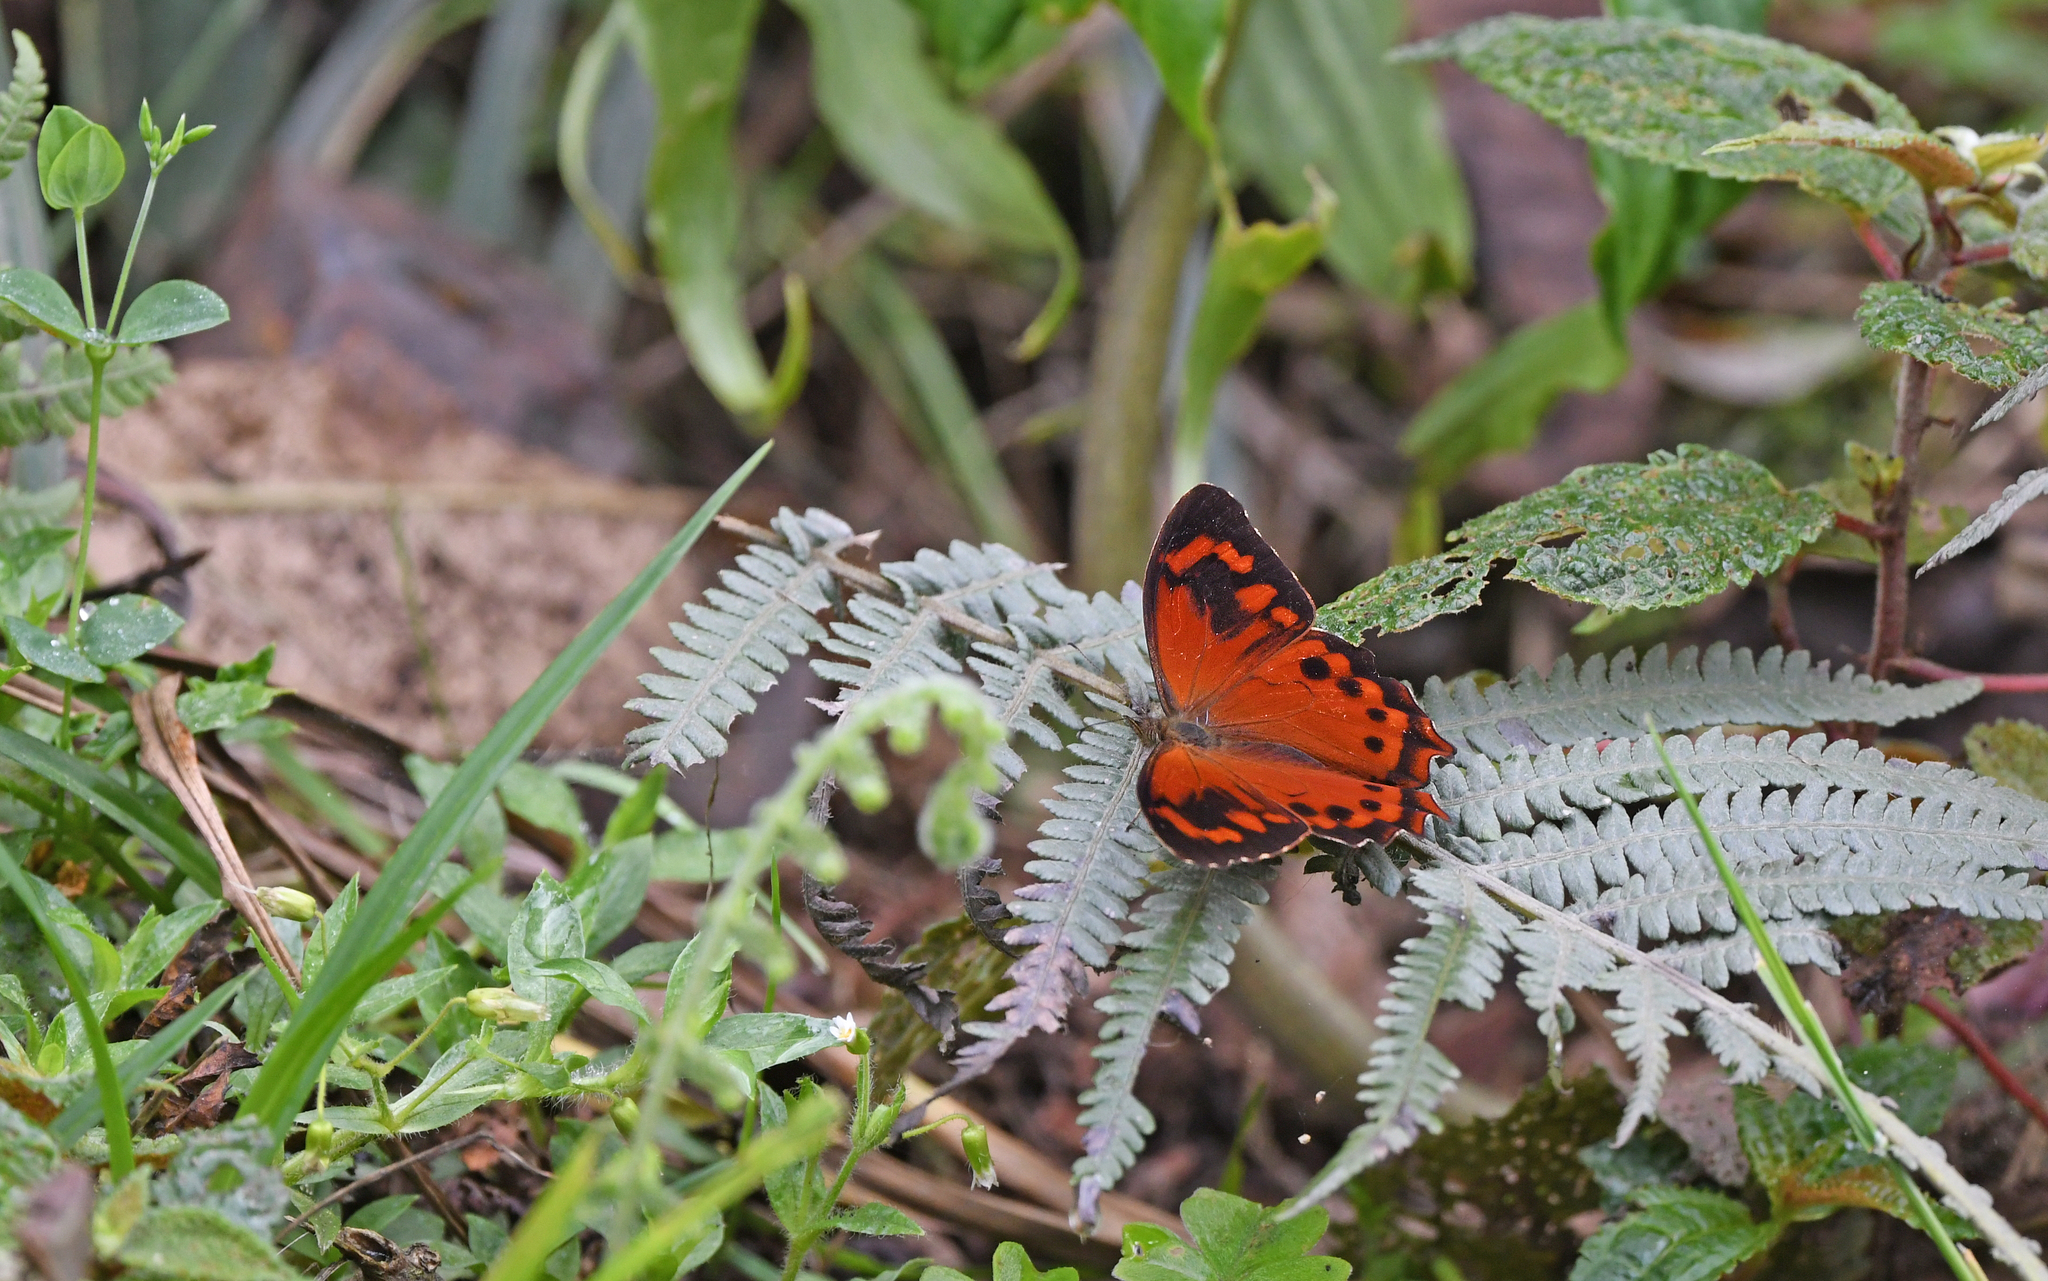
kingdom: Animalia
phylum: Arthropoda
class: Insecta
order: Lepidoptera
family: Nymphalidae
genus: Lasiophila
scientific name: Lasiophila orbifera
